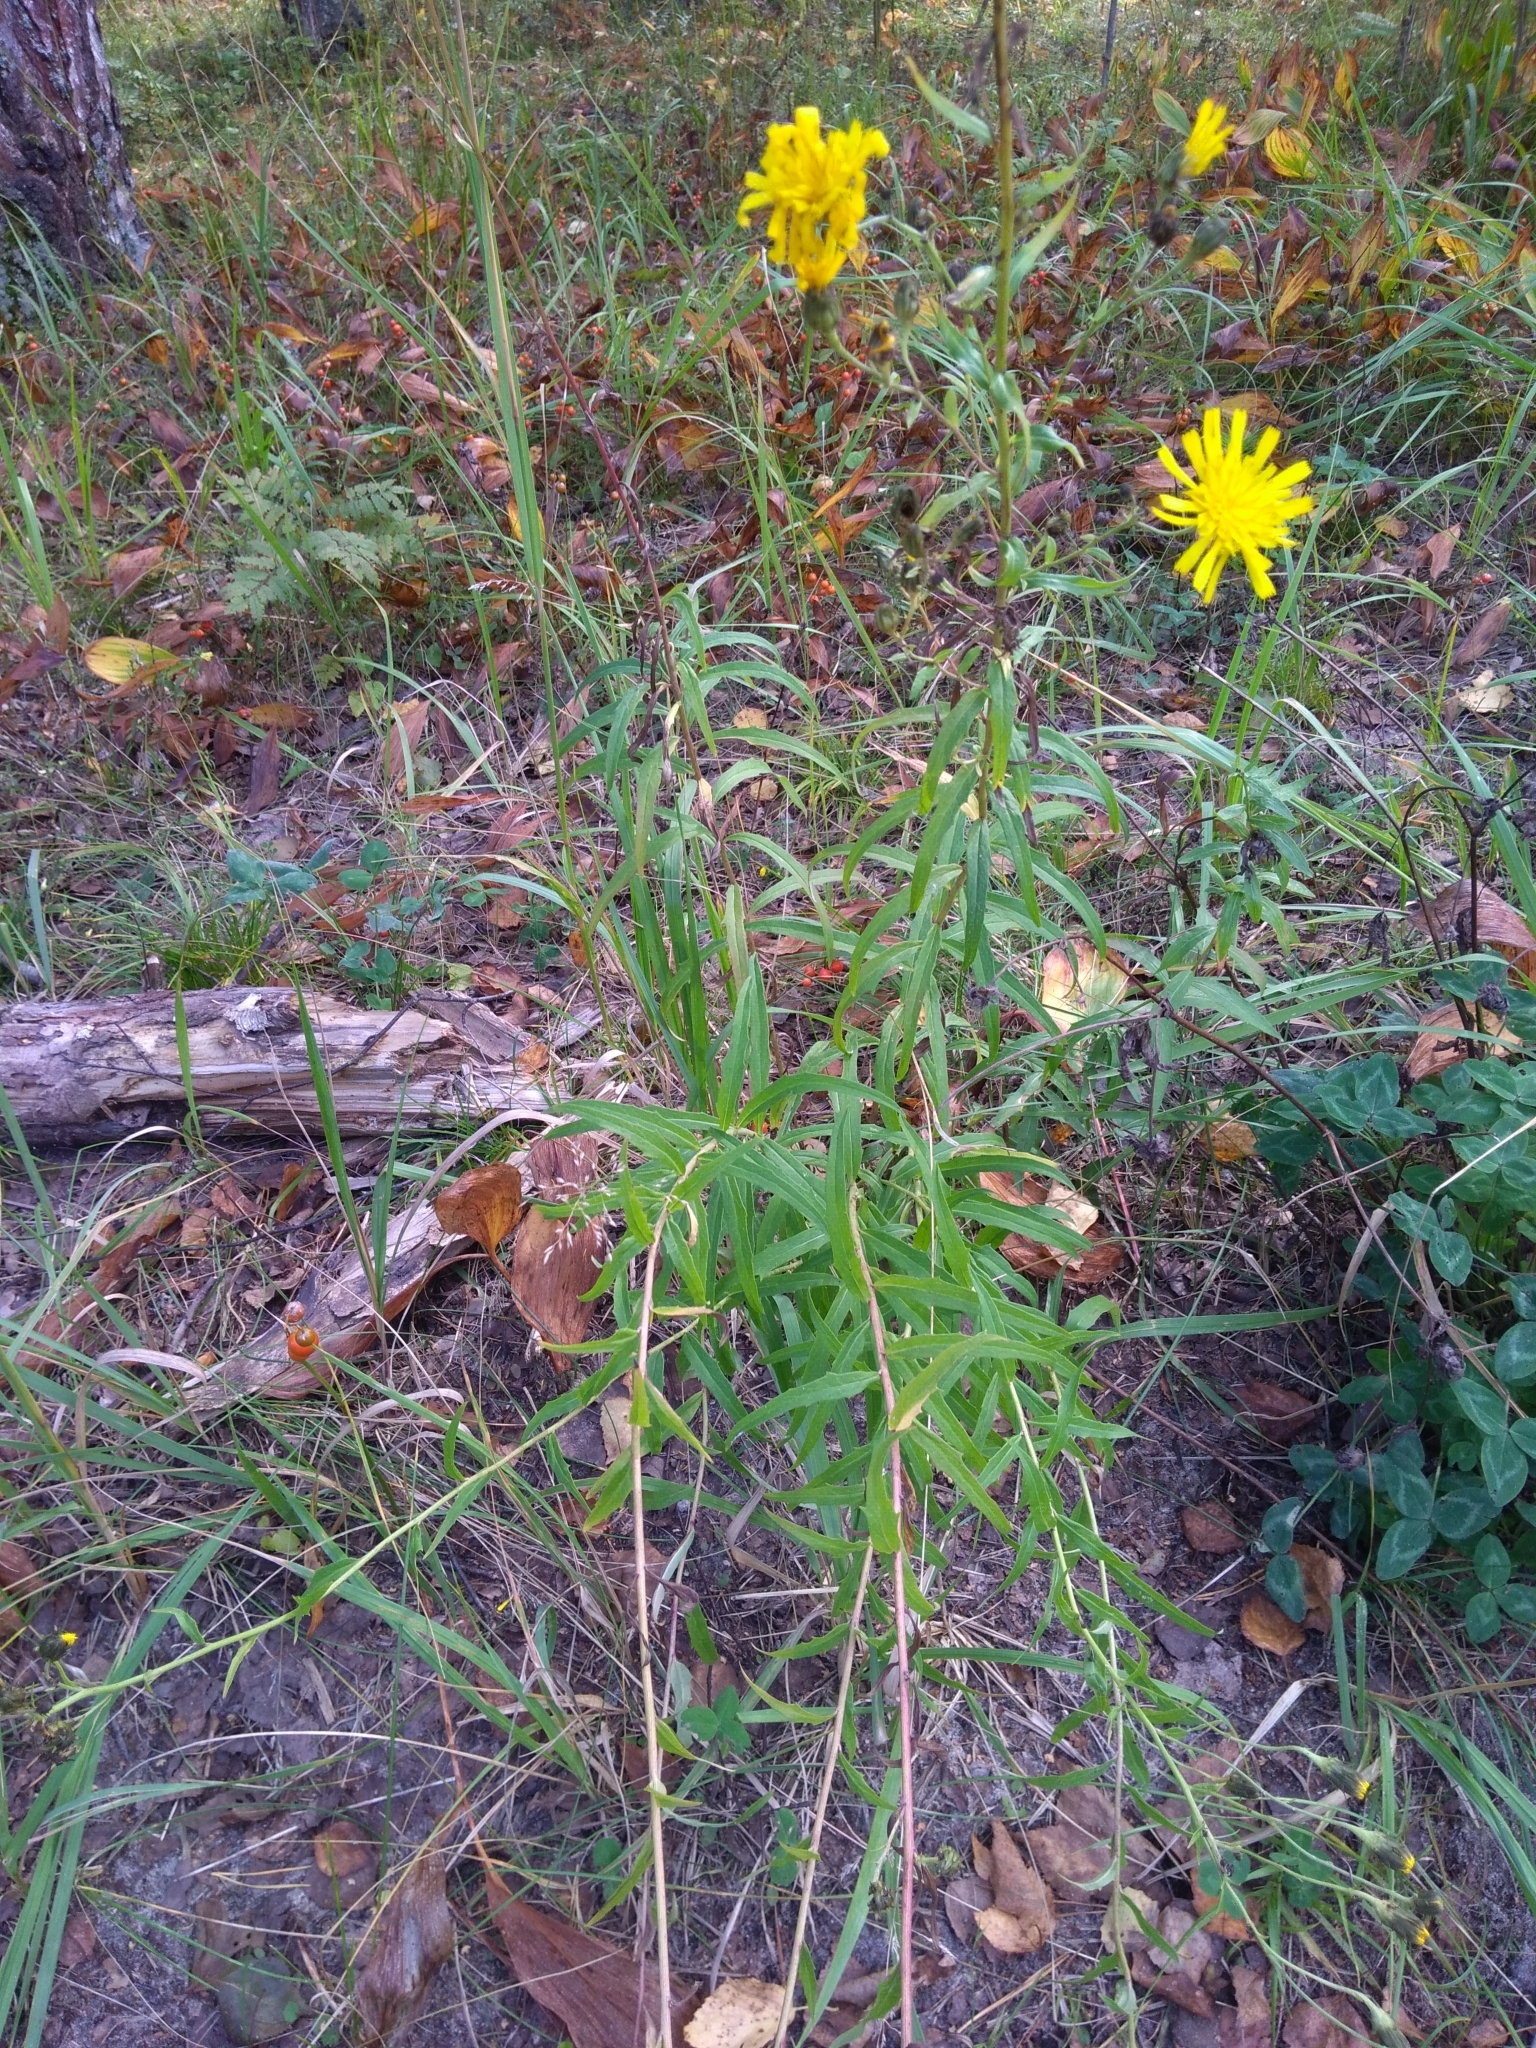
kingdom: Plantae
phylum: Tracheophyta
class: Magnoliopsida
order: Asterales
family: Asteraceae
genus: Hieracium
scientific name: Hieracium umbellatum
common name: Northern hawkweed
